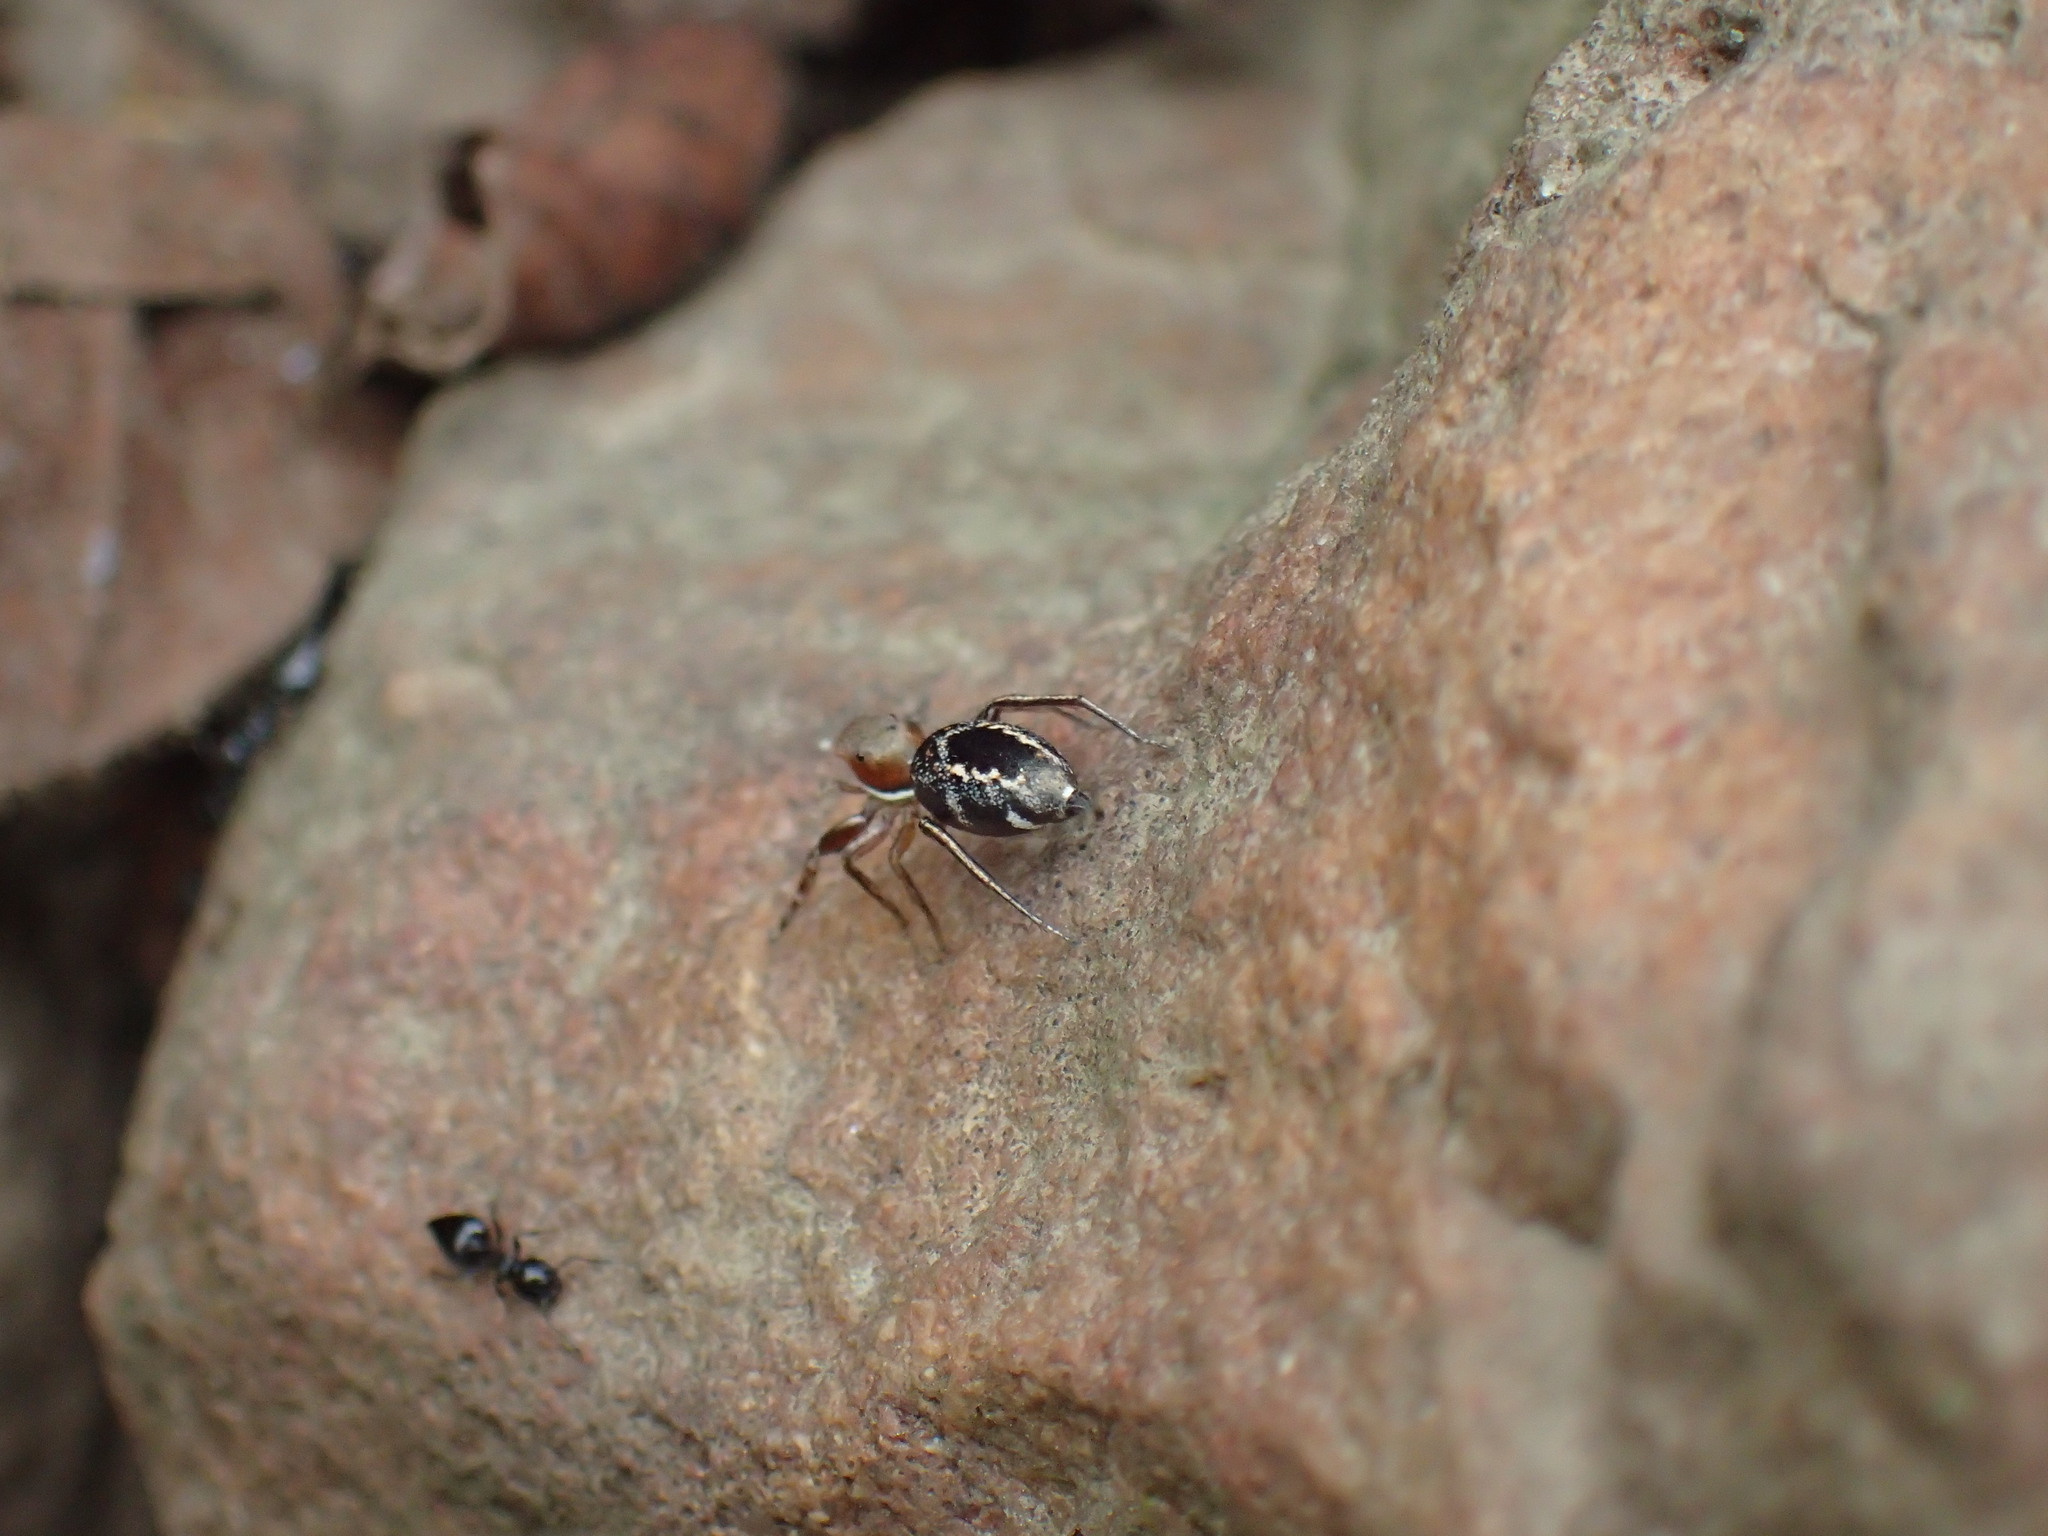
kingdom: Animalia
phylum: Arthropoda
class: Arachnida
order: Araneae
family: Salticidae
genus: Natta
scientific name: Natta chionogaster
